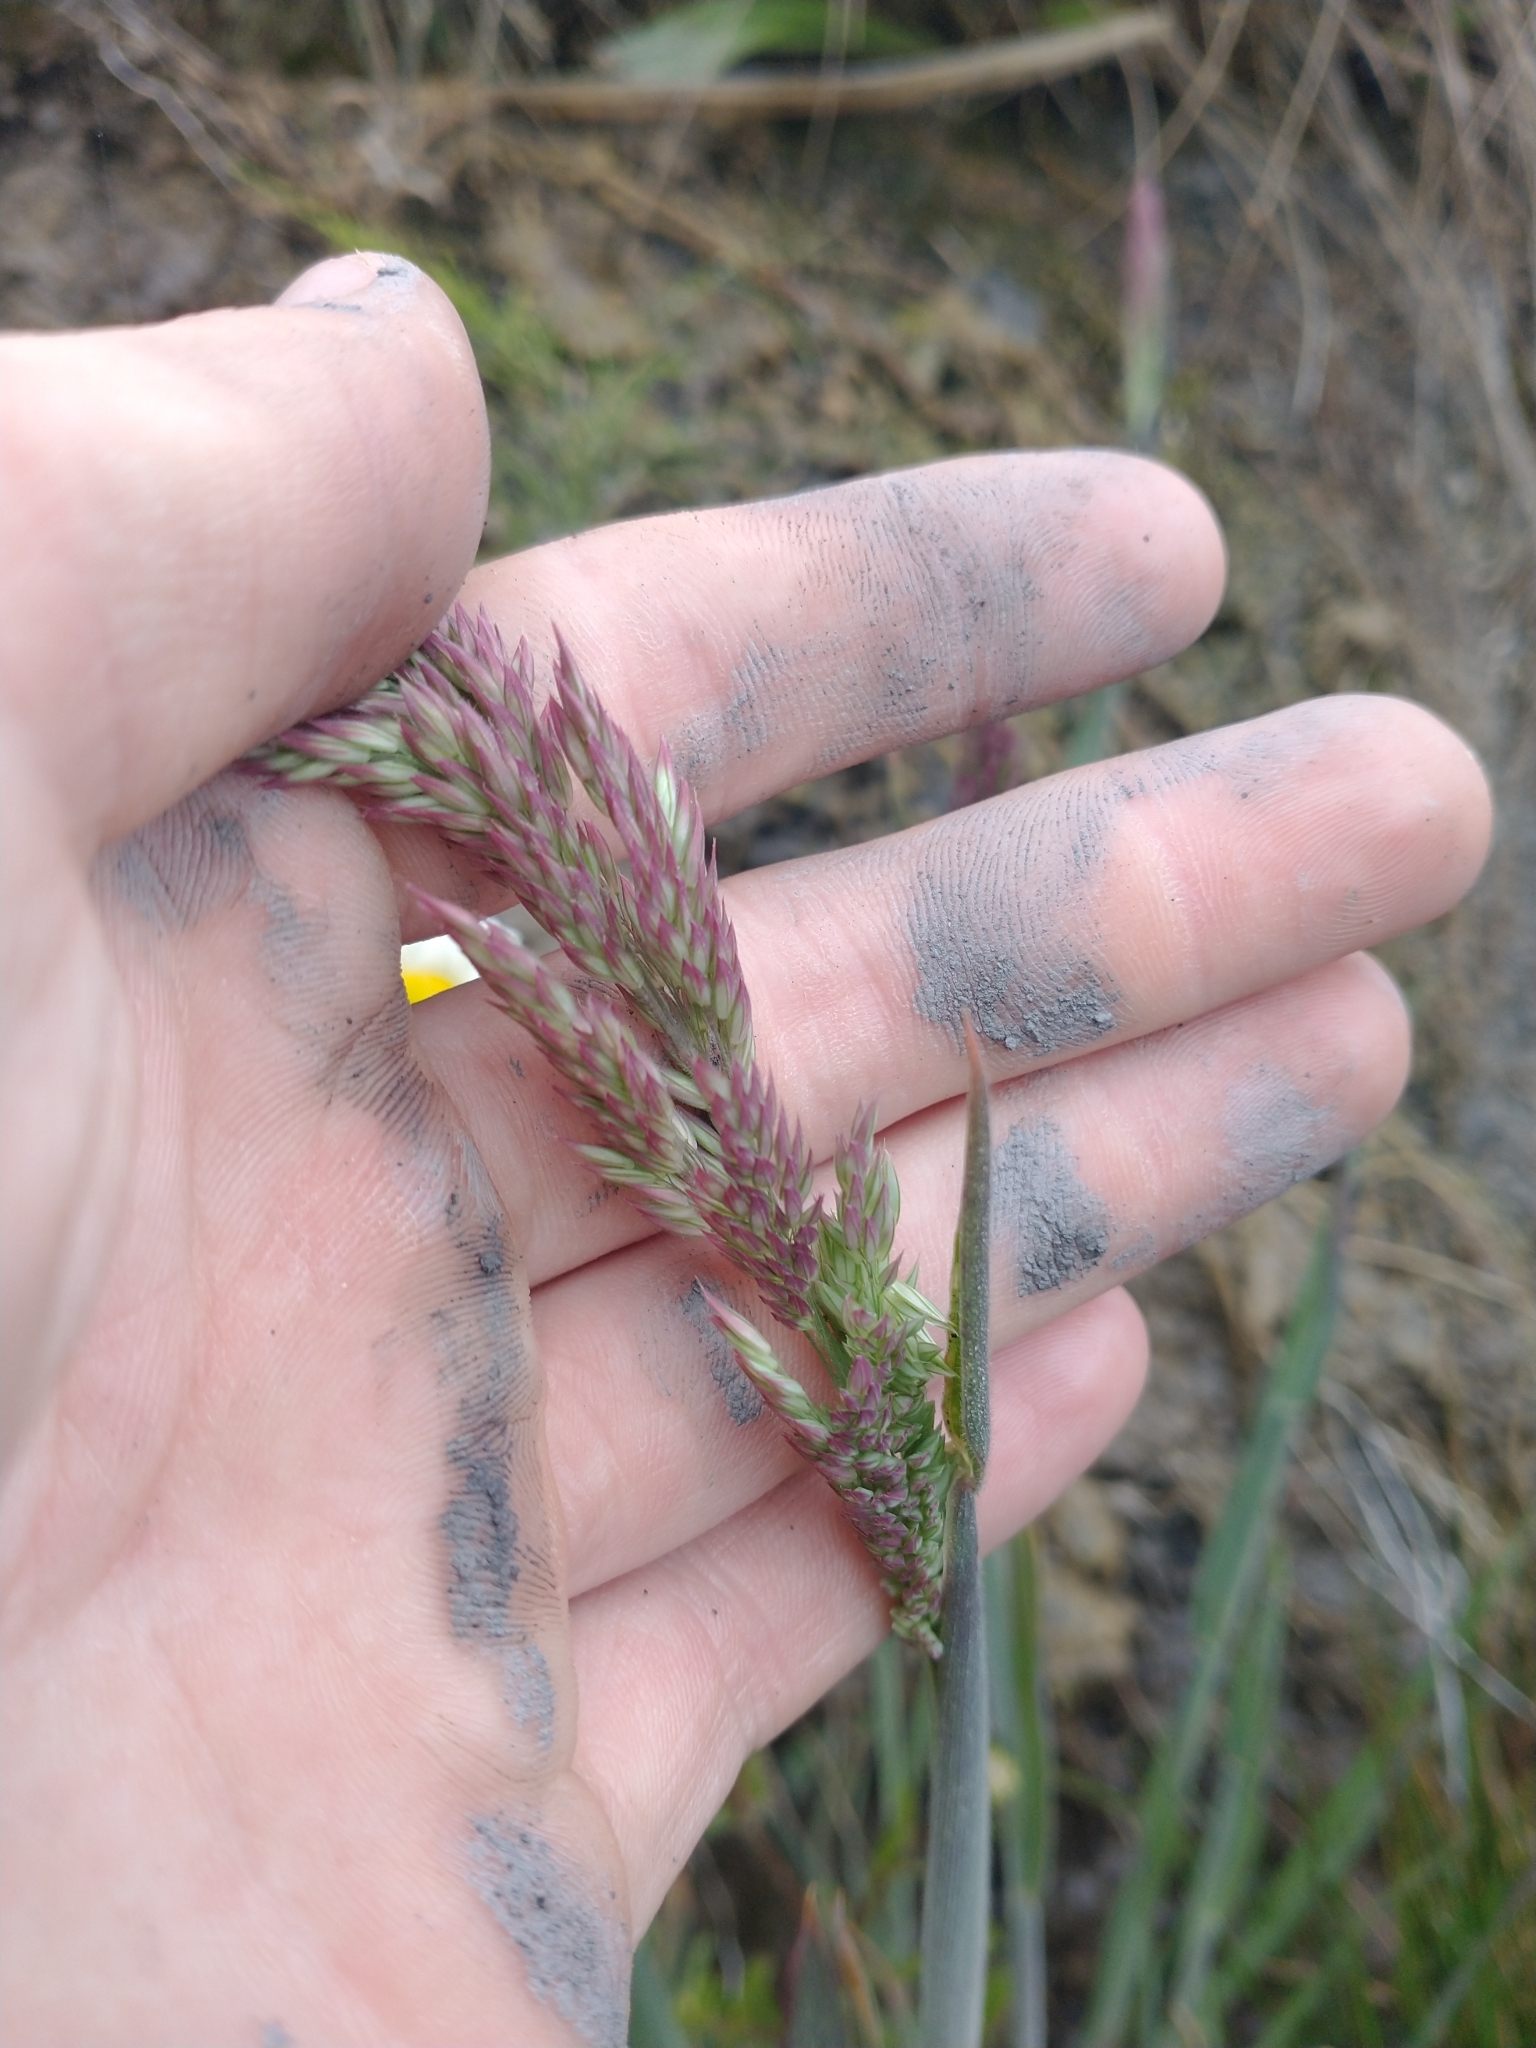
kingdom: Plantae
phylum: Tracheophyta
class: Liliopsida
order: Poales
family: Poaceae
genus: Holcus
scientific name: Holcus lanatus
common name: Yorkshire-fog
